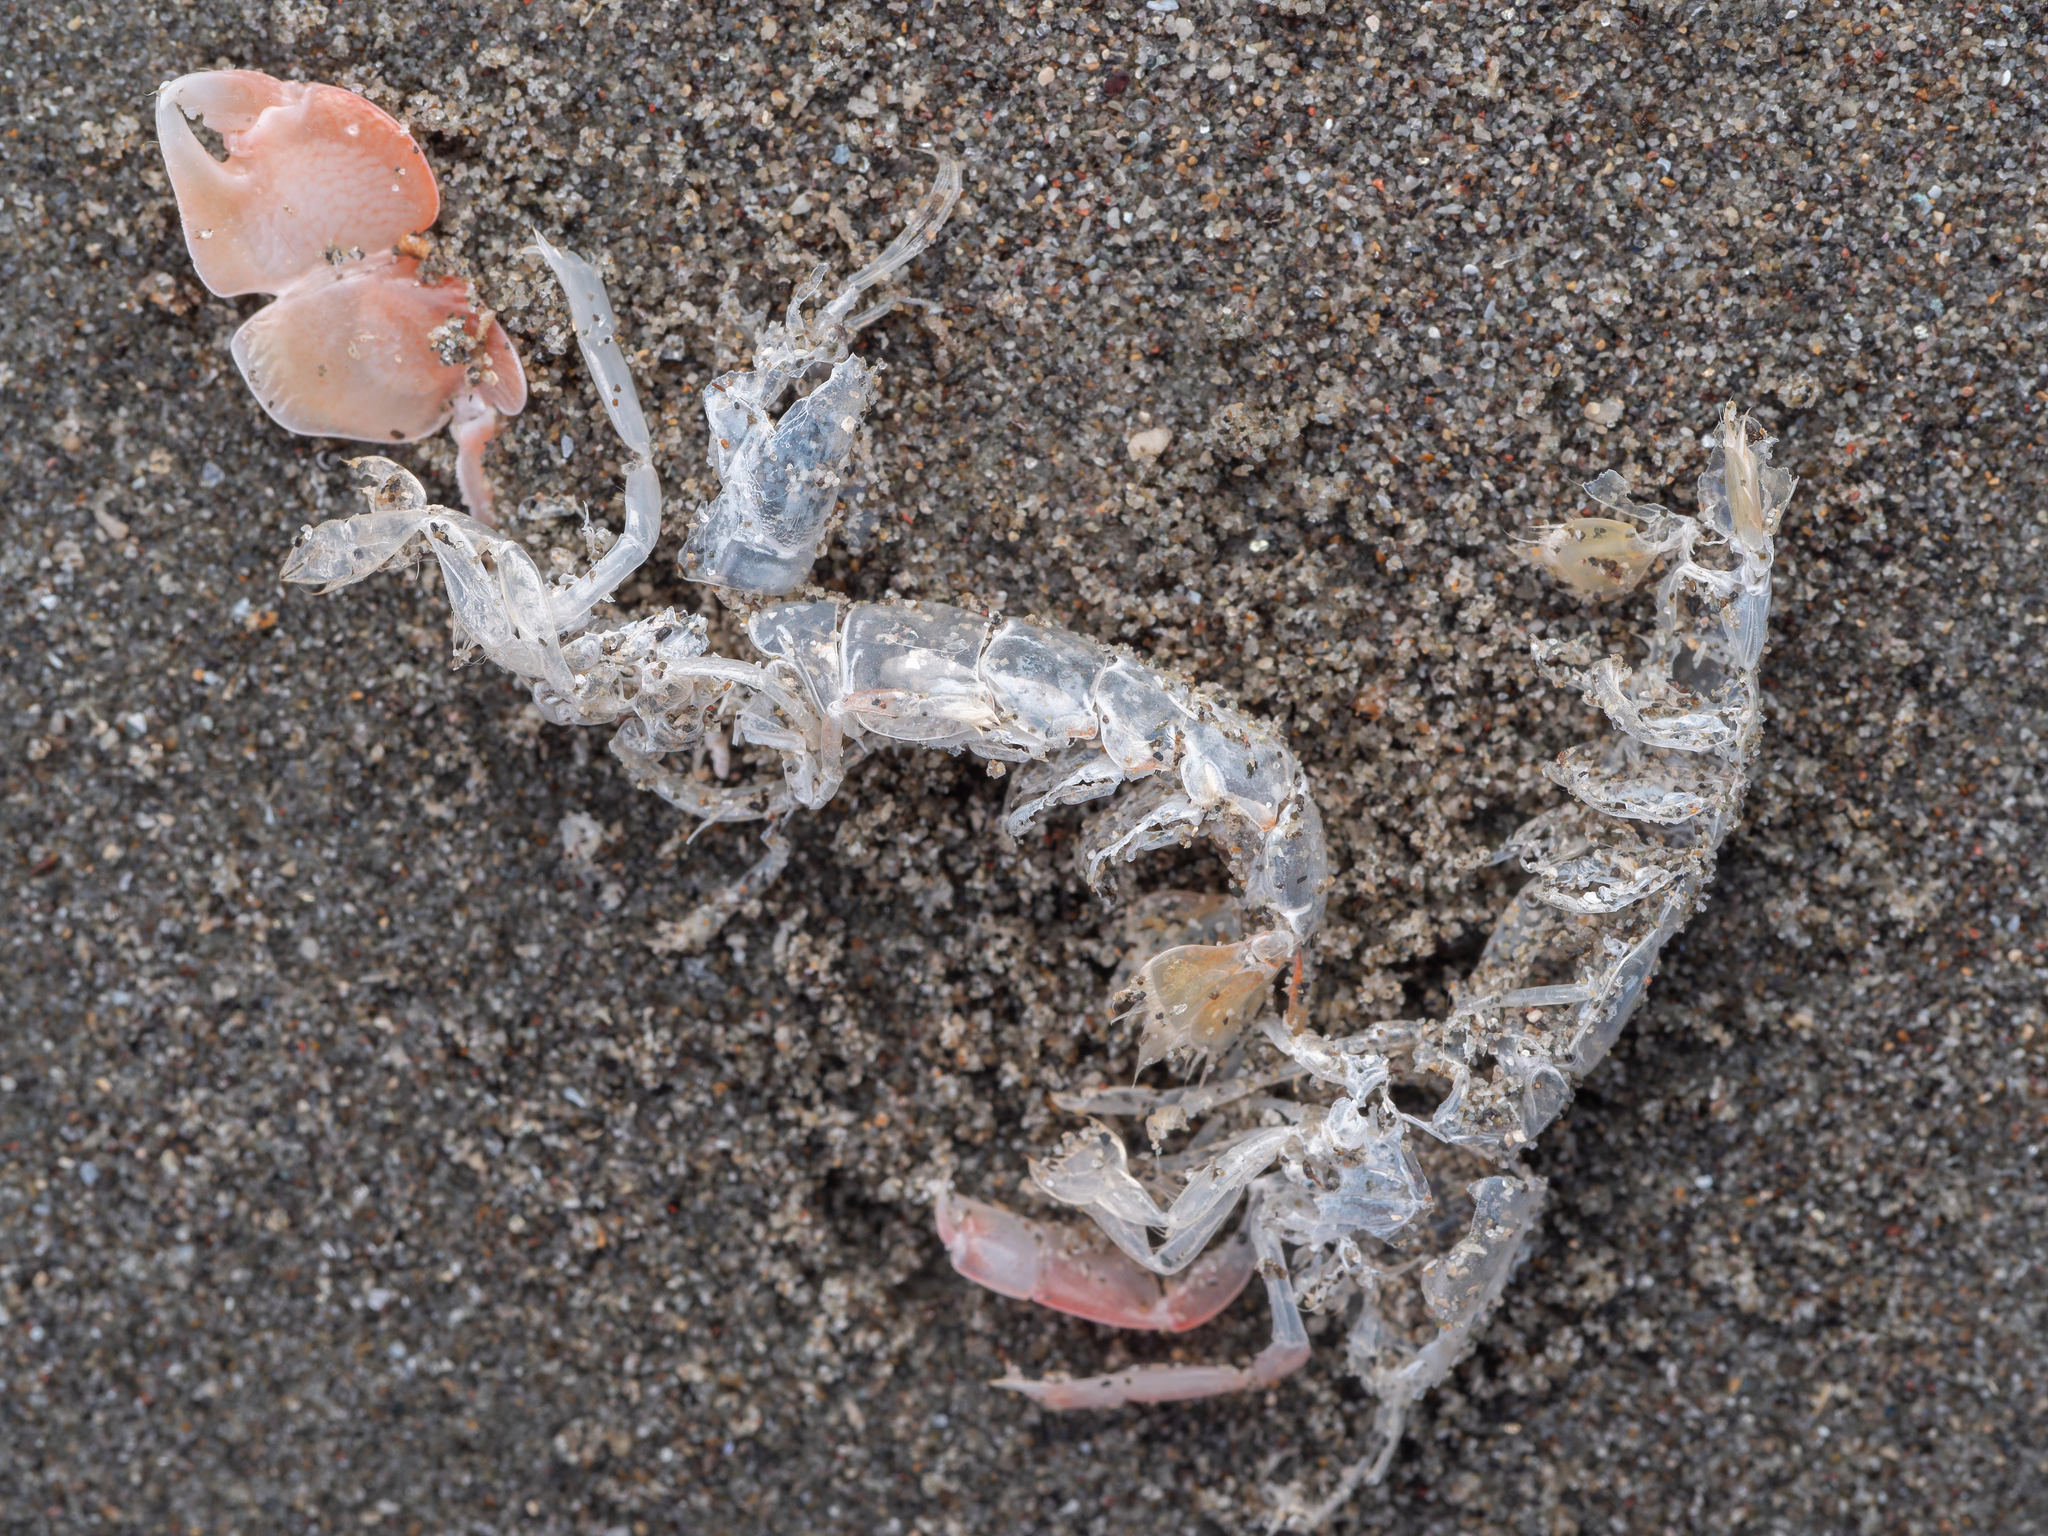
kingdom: Animalia
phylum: Arthropoda
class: Malacostraca
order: Decapoda
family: Callianassidae
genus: Filhollianassa
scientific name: Filhollianassa filholi
